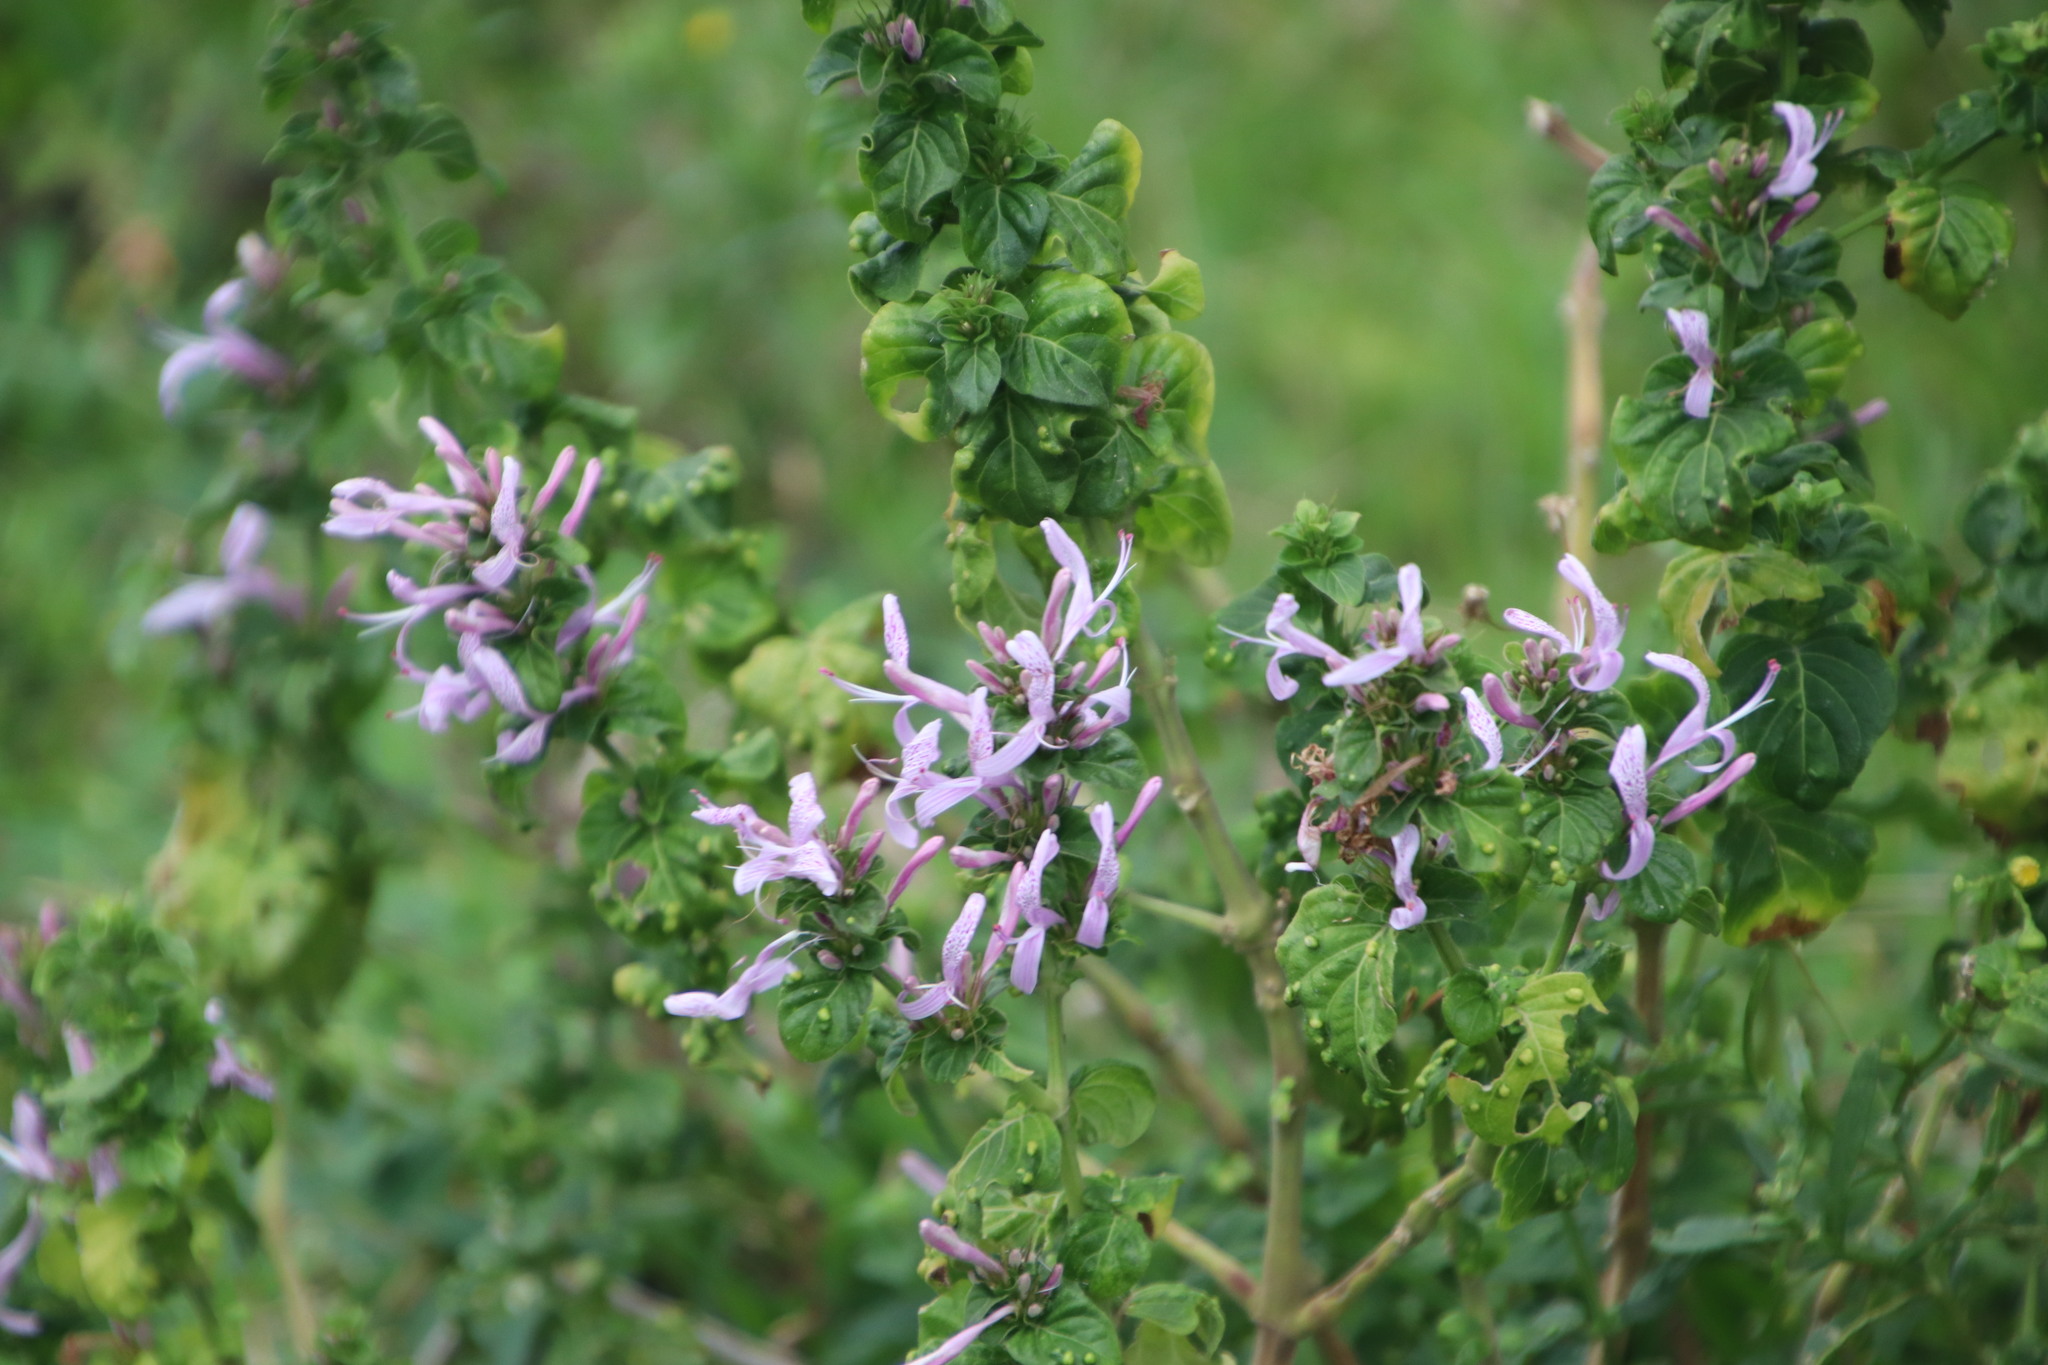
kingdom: Plantae
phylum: Tracheophyta
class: Magnoliopsida
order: Lamiales
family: Acanthaceae
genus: Hypoestes
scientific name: Hypoestes aristata
